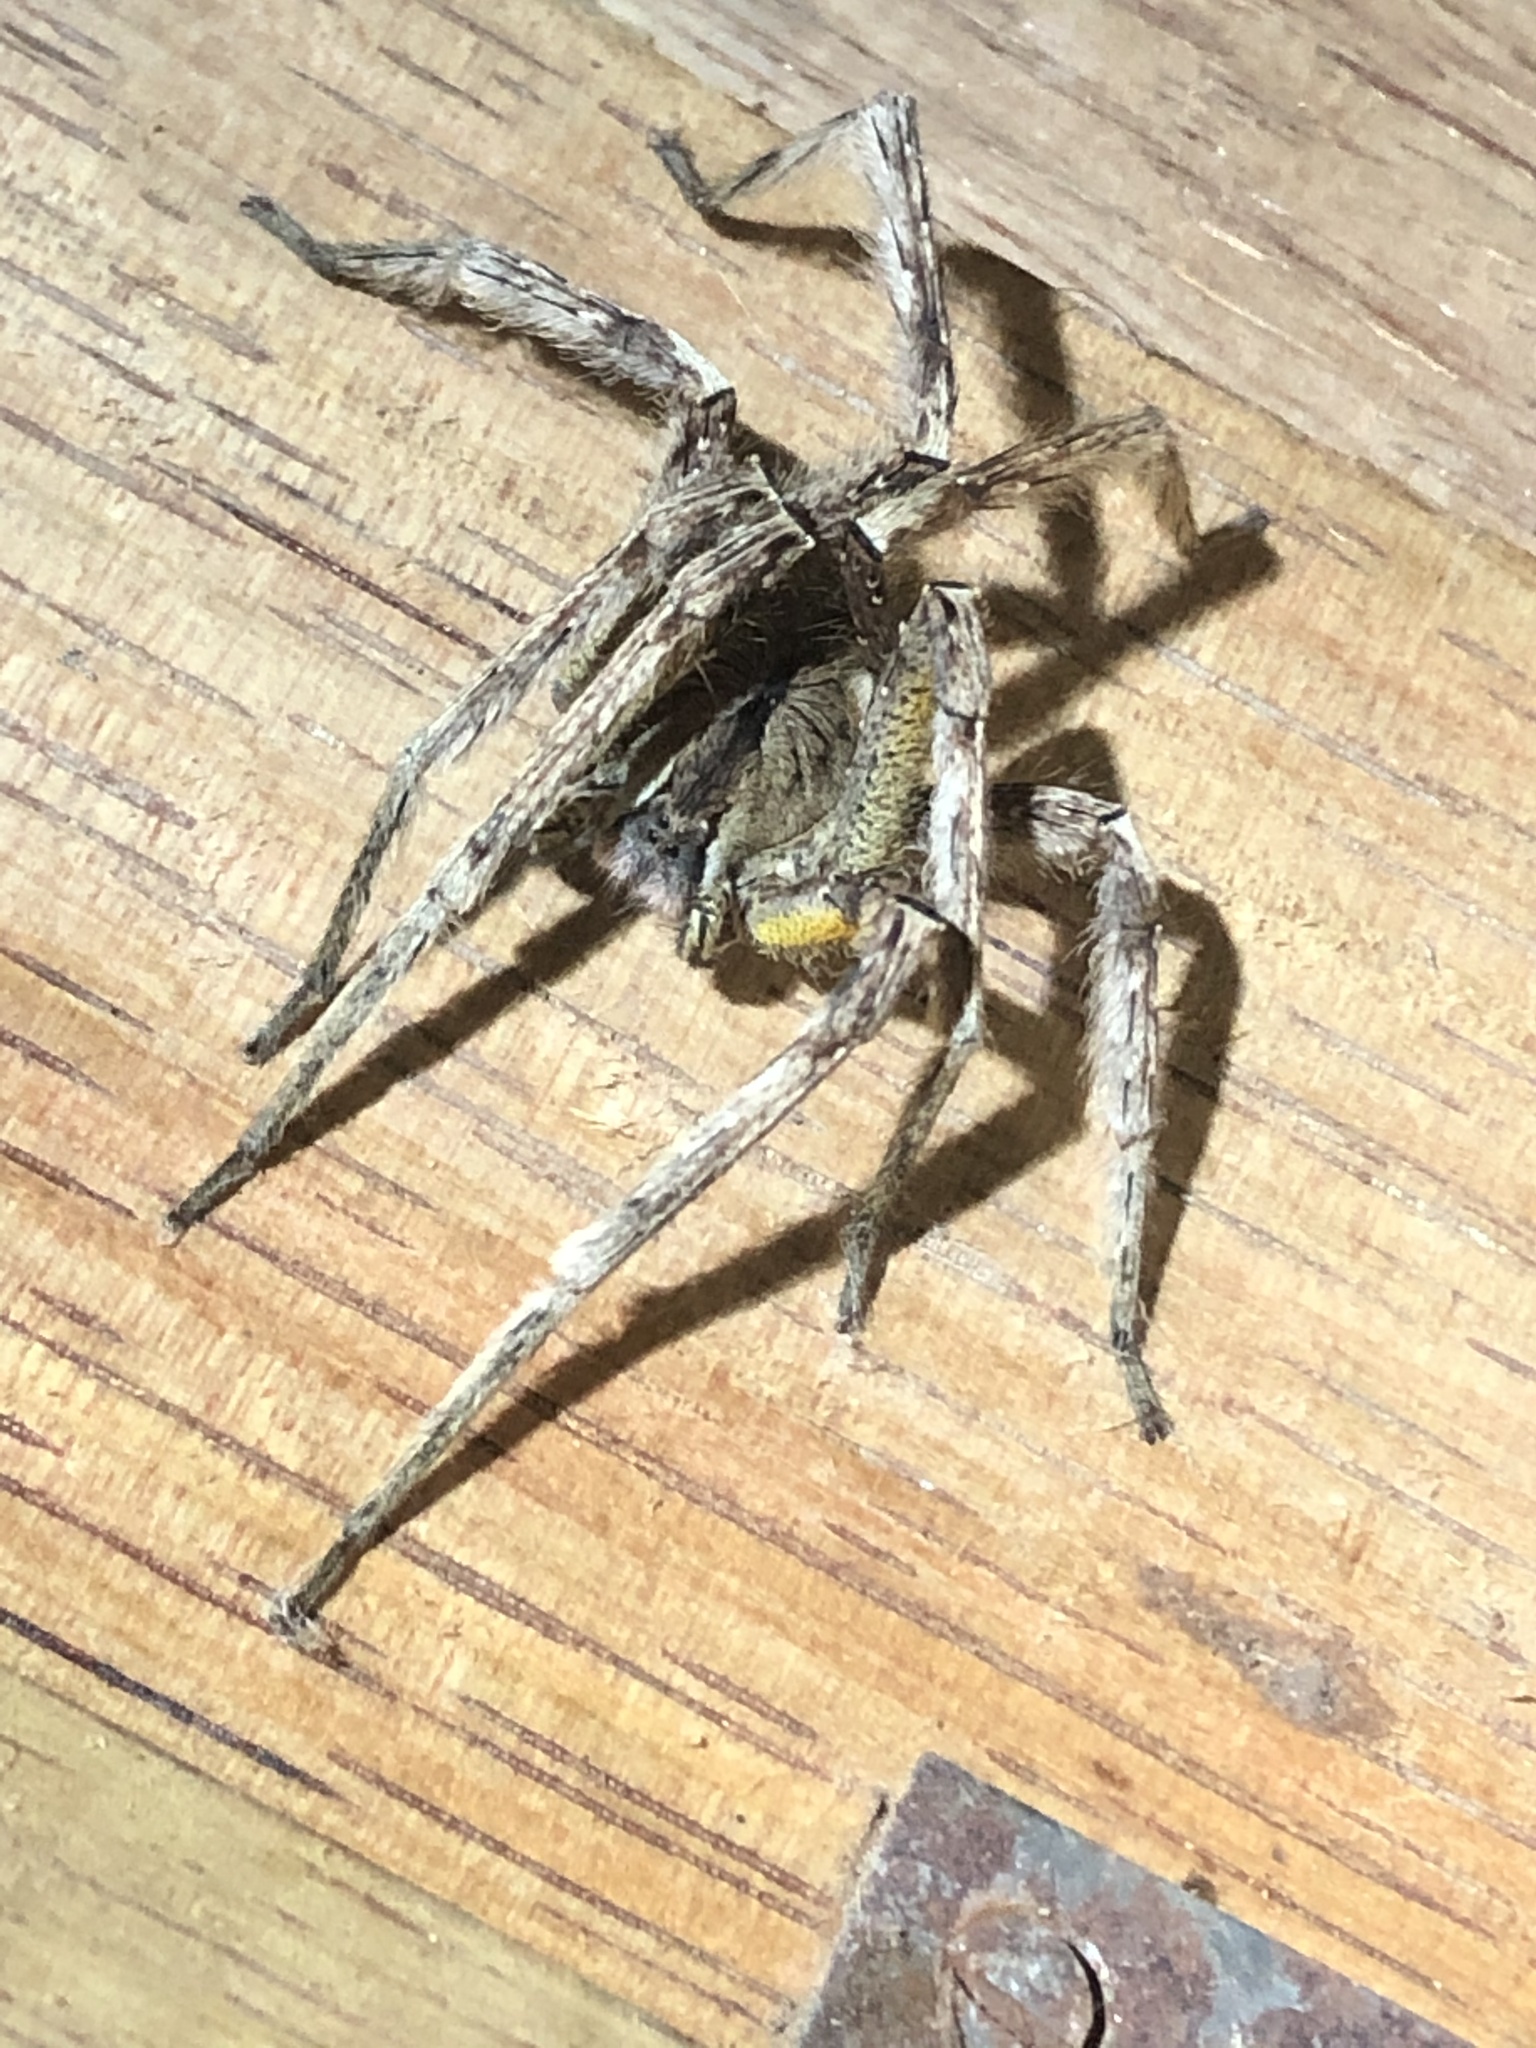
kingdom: Animalia
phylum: Arthropoda
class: Arachnida
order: Araneae
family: Ctenidae
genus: Phoneutria
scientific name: Phoneutria boliviensis
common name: Wandering spiders
